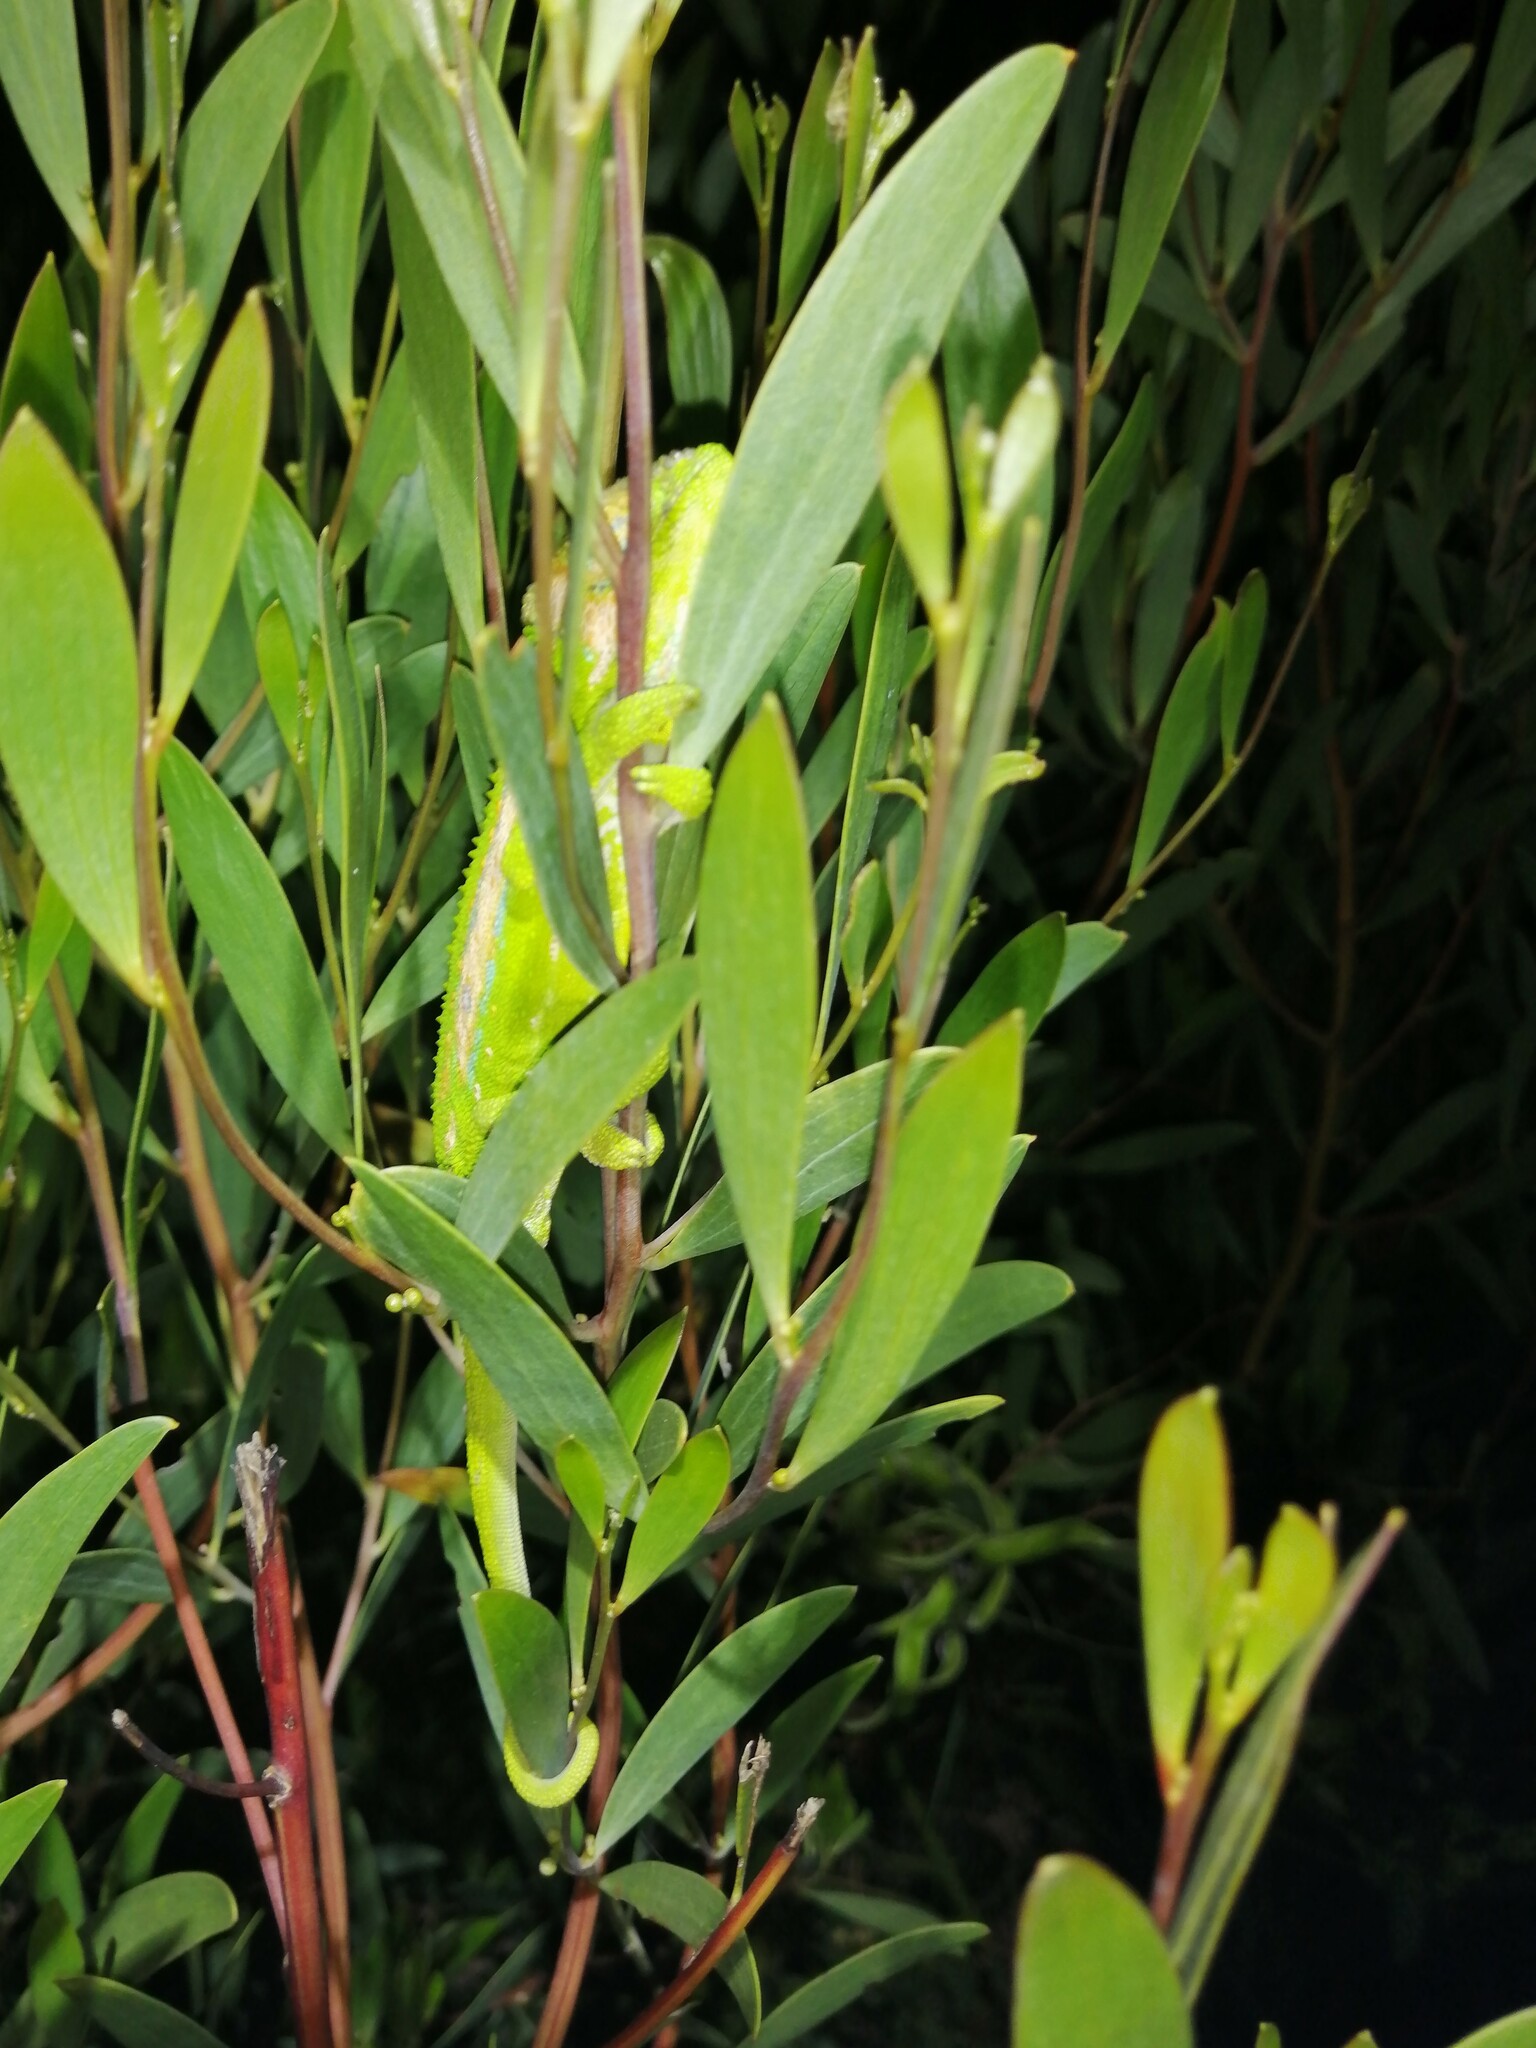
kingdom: Animalia
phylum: Chordata
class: Squamata
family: Chamaeleonidae
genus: Bradypodion
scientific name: Bradypodion pumilum
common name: Cape dwarf chameleon
